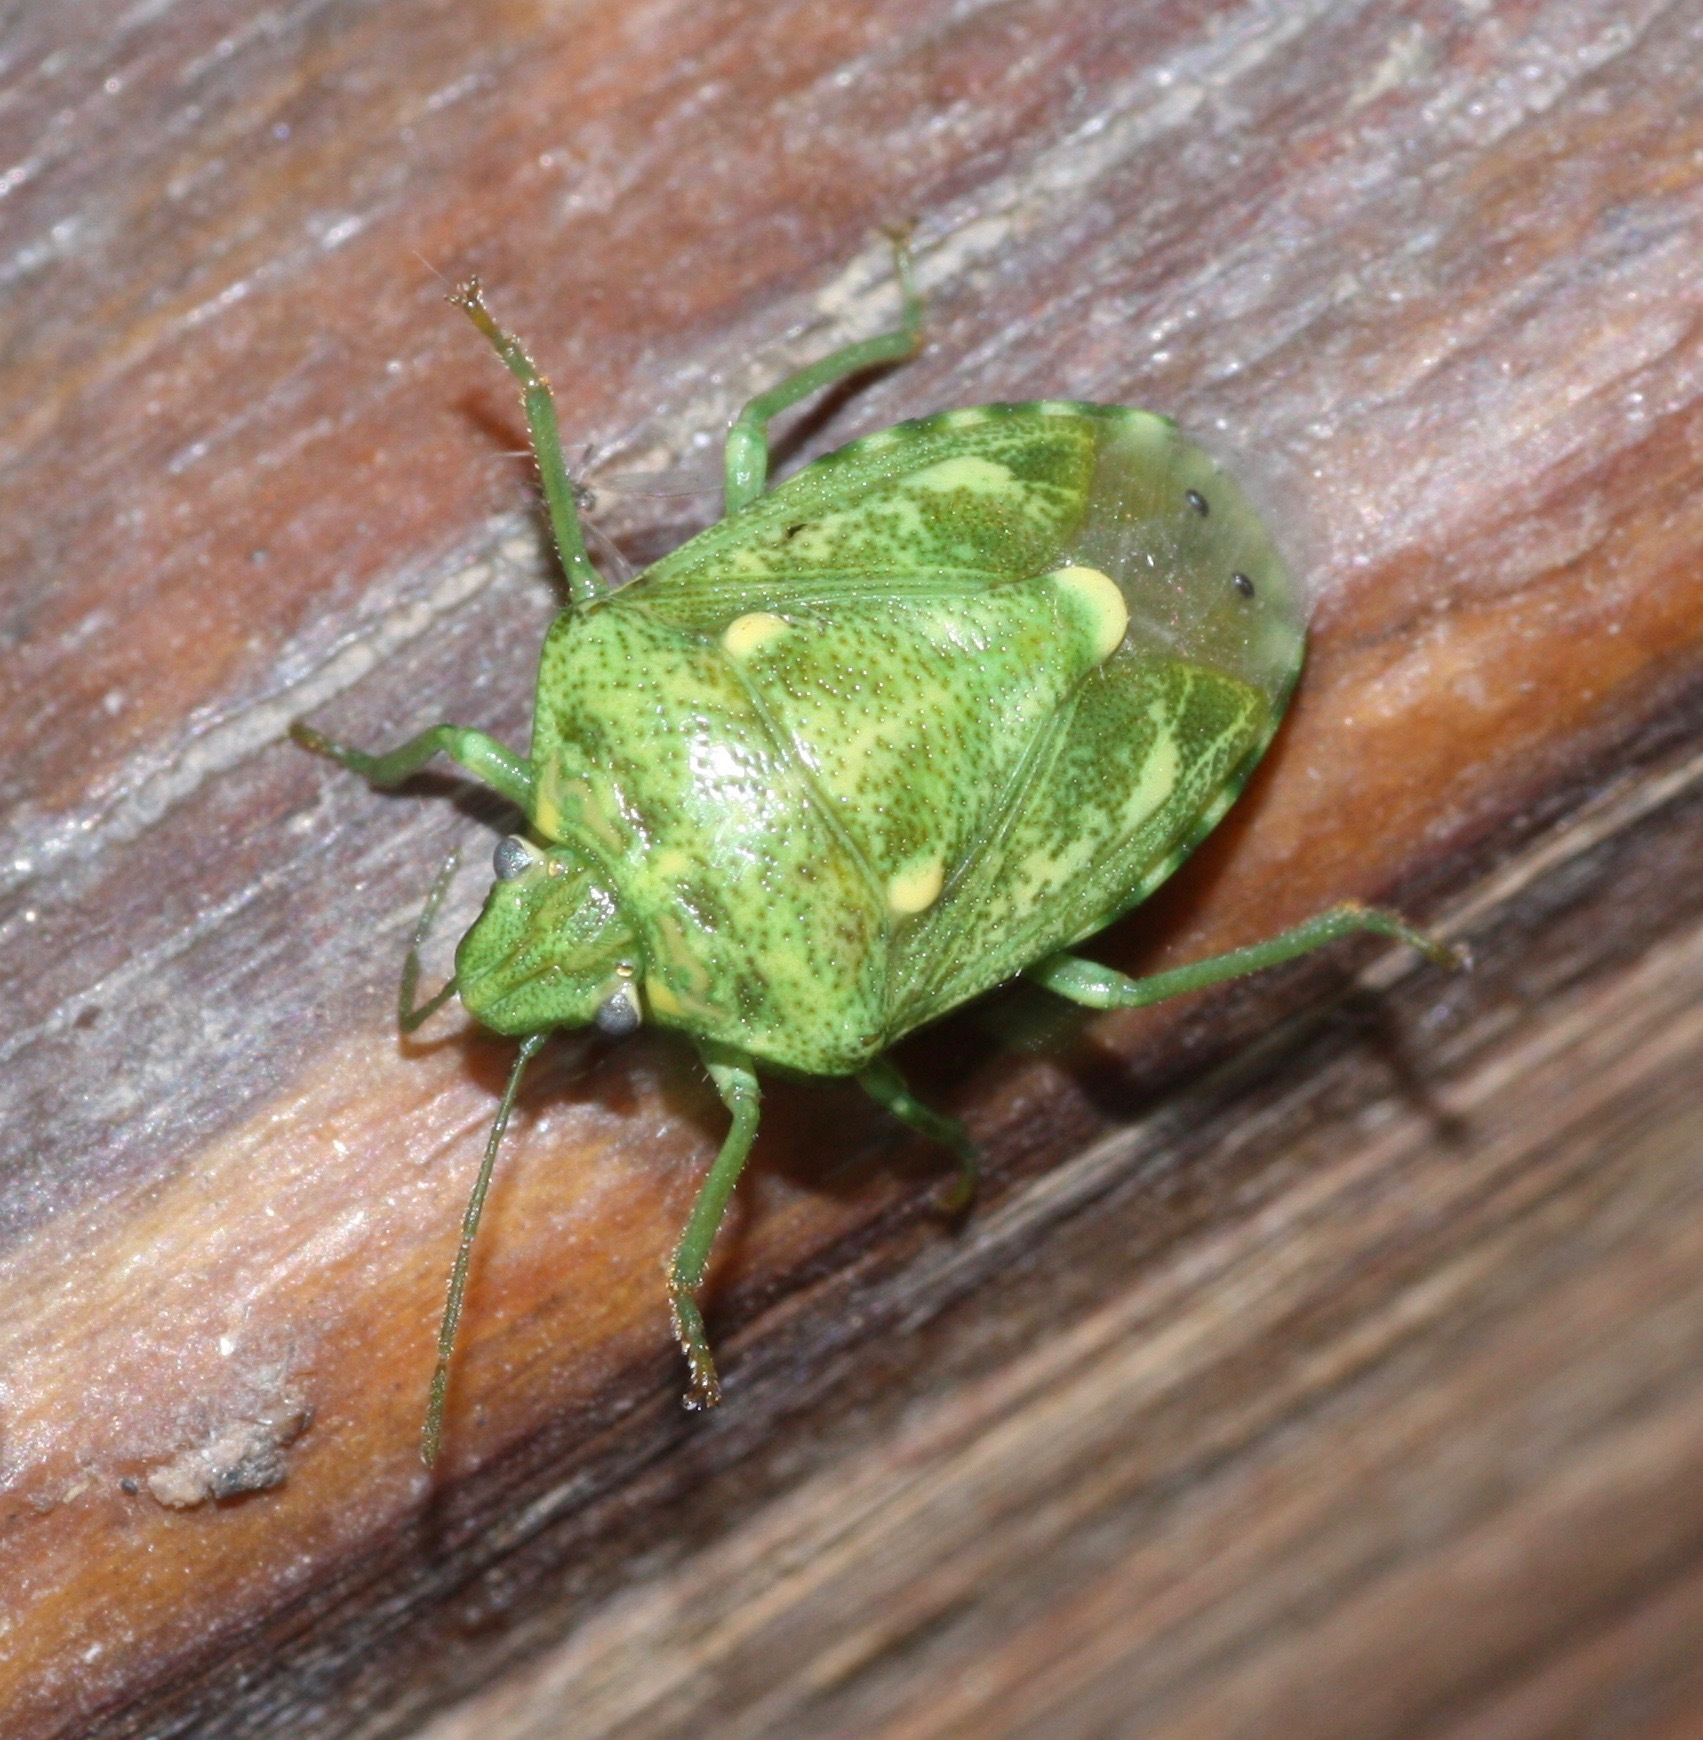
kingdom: Animalia
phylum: Arthropoda
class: Insecta
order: Hemiptera
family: Pentatomidae
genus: Banasa
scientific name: Banasa euchlora
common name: Cedar berry bug
